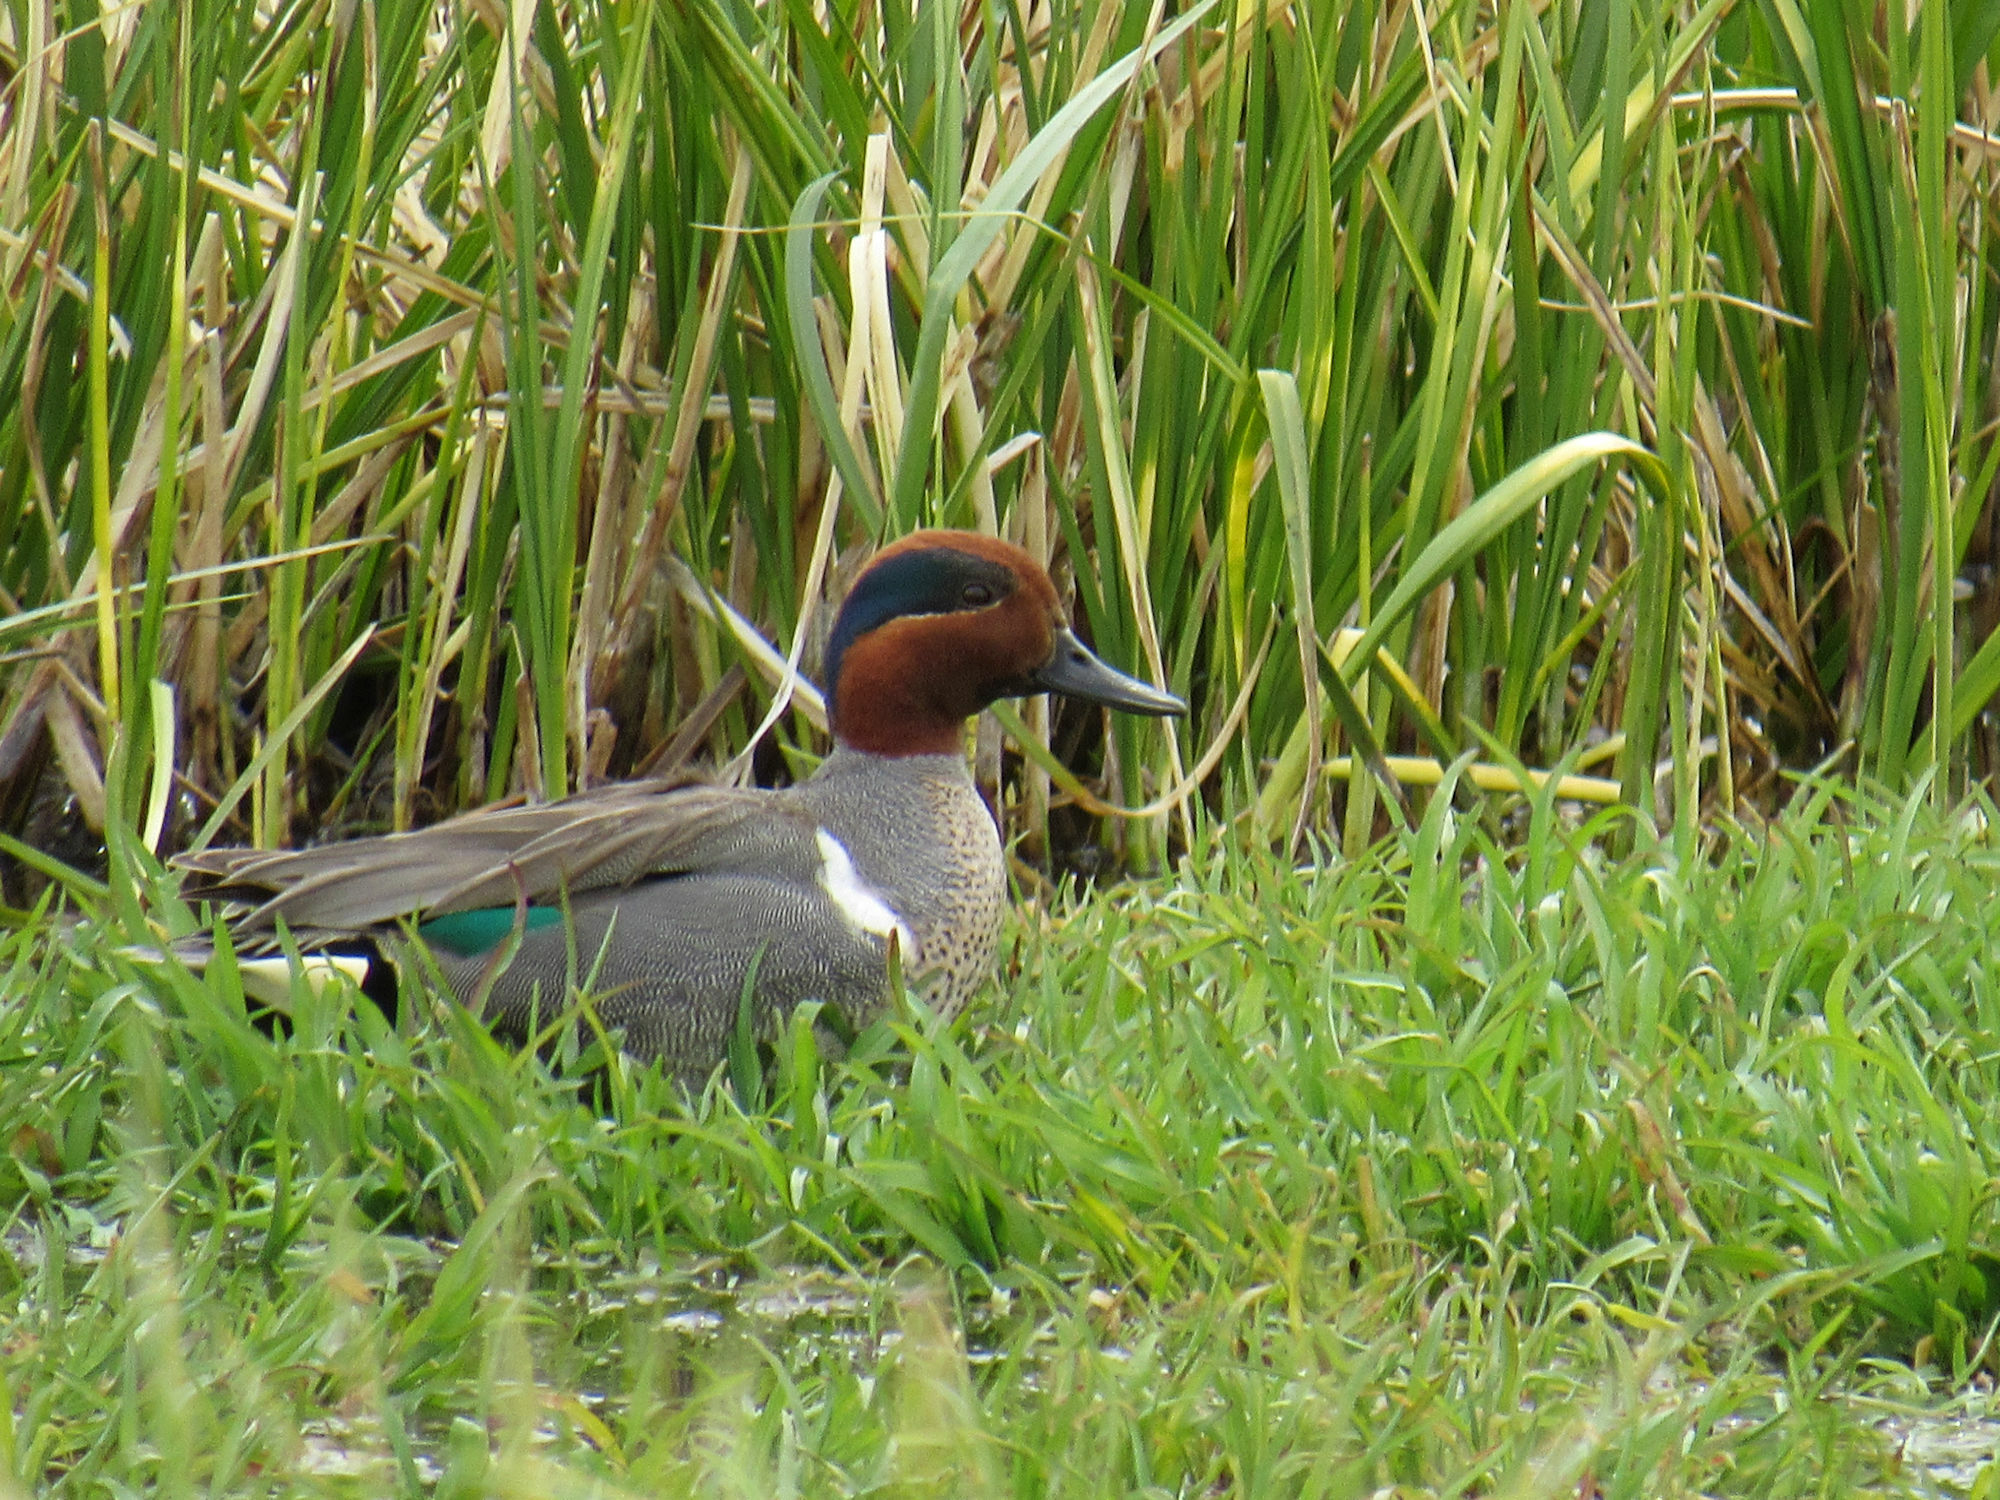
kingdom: Animalia
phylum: Chordata
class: Aves
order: Anseriformes
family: Anatidae
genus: Anas
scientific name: Anas crecca
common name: Eurasian teal
